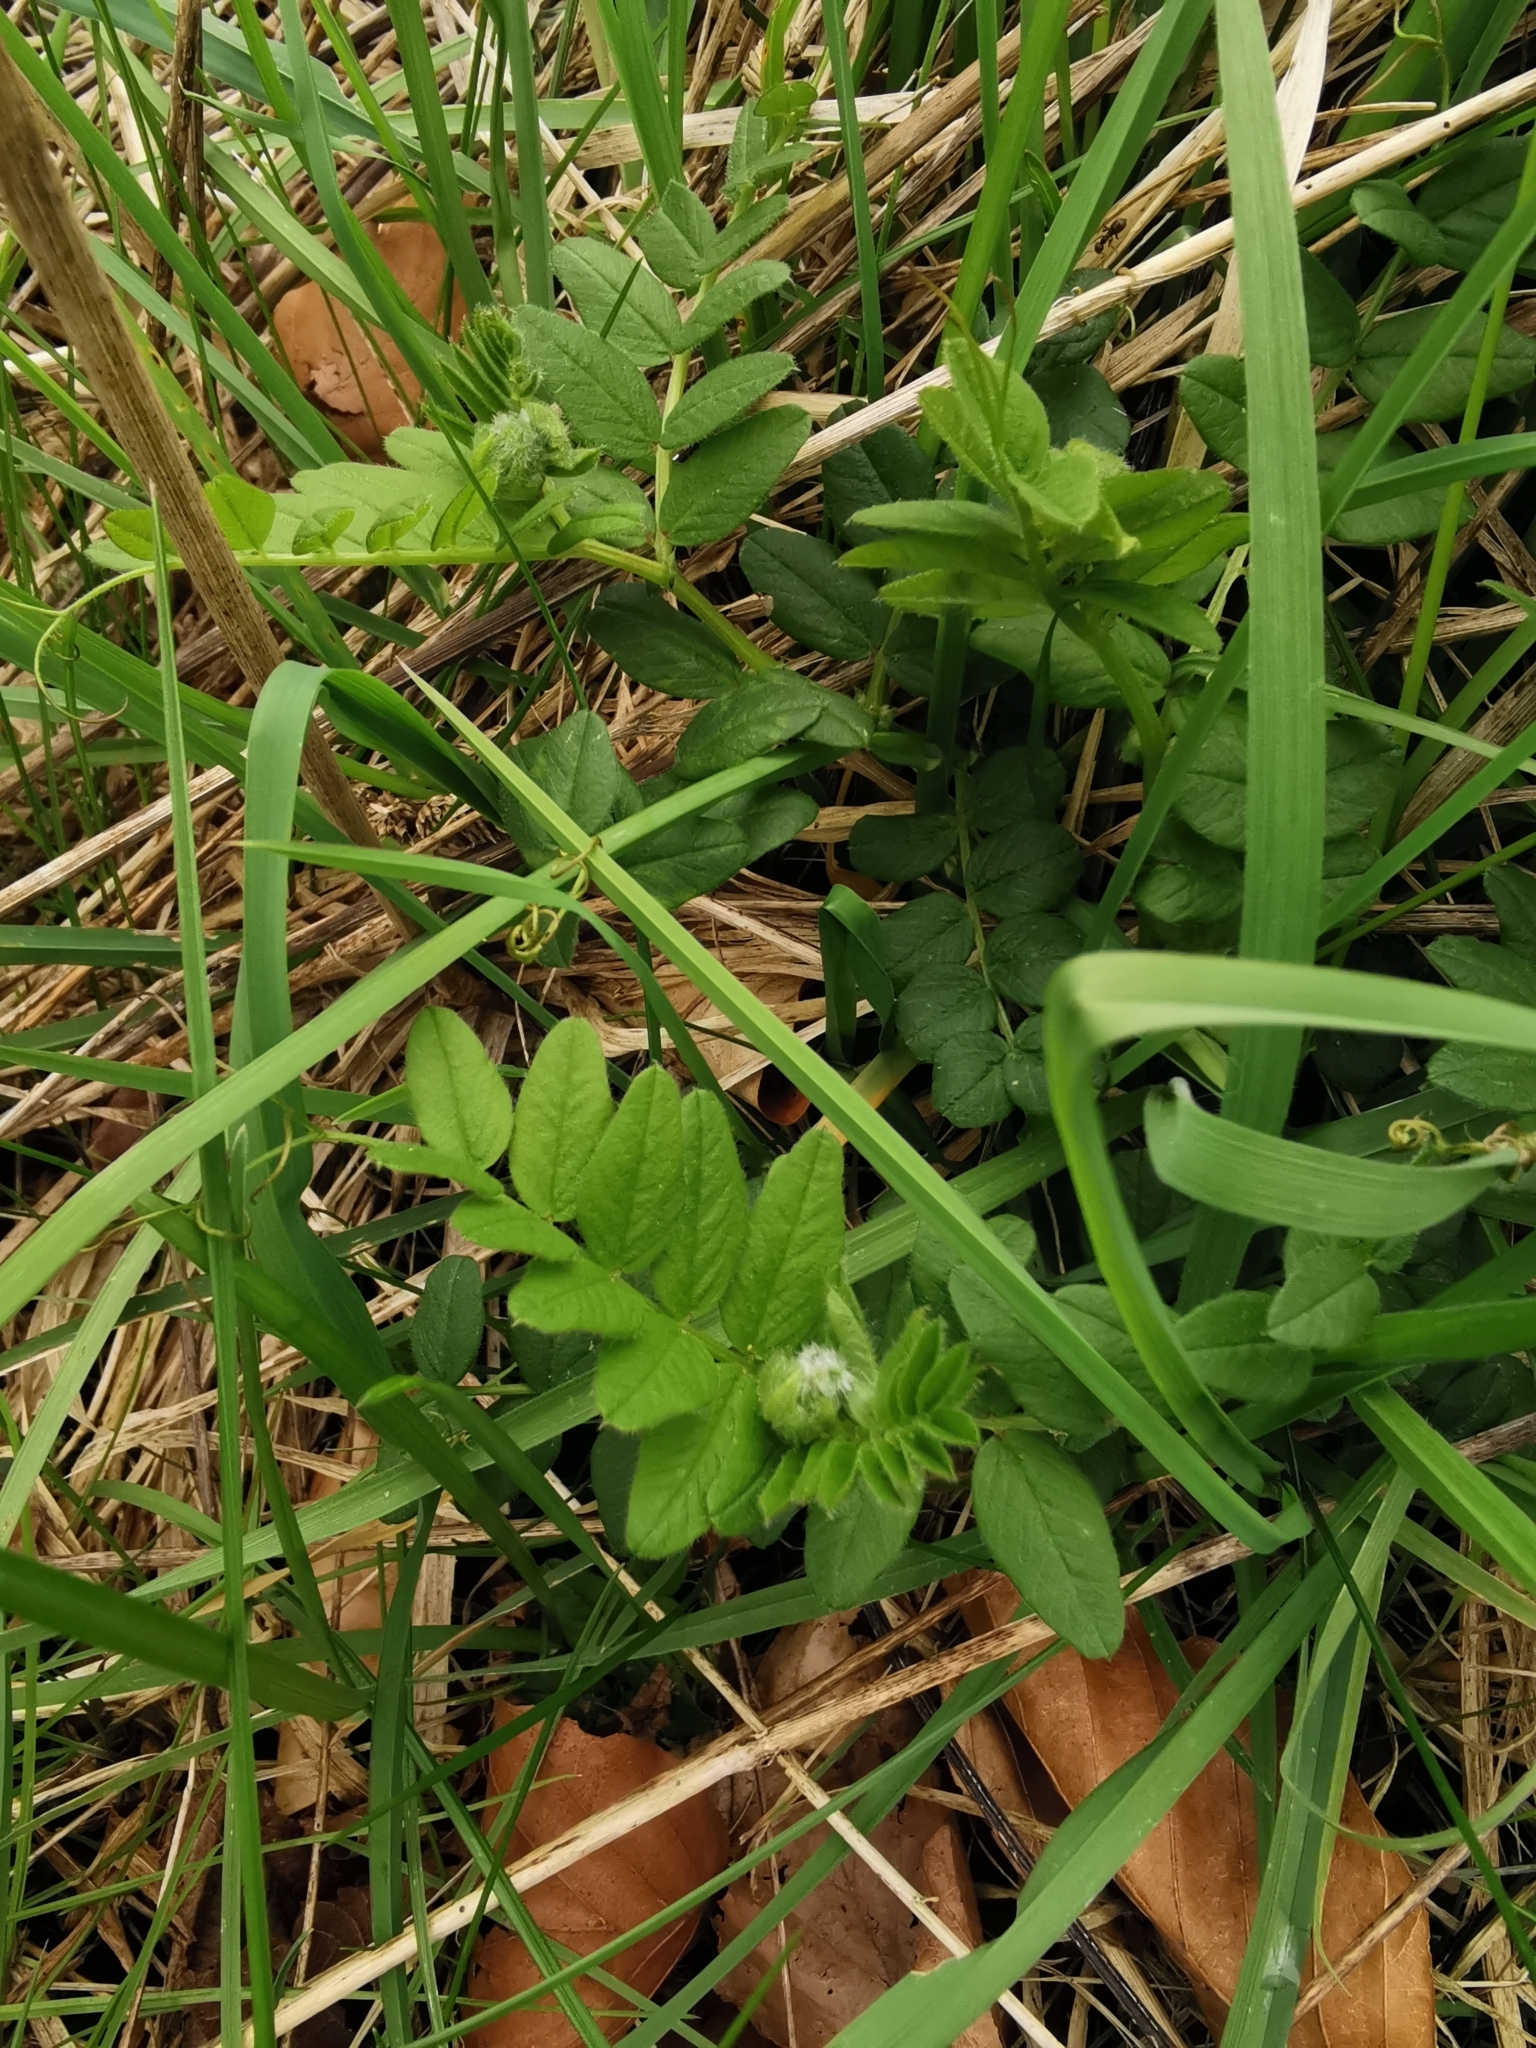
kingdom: Plantae
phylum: Tracheophyta
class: Magnoliopsida
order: Fabales
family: Fabaceae
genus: Vicia
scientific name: Vicia sepium
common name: Bush vetch
